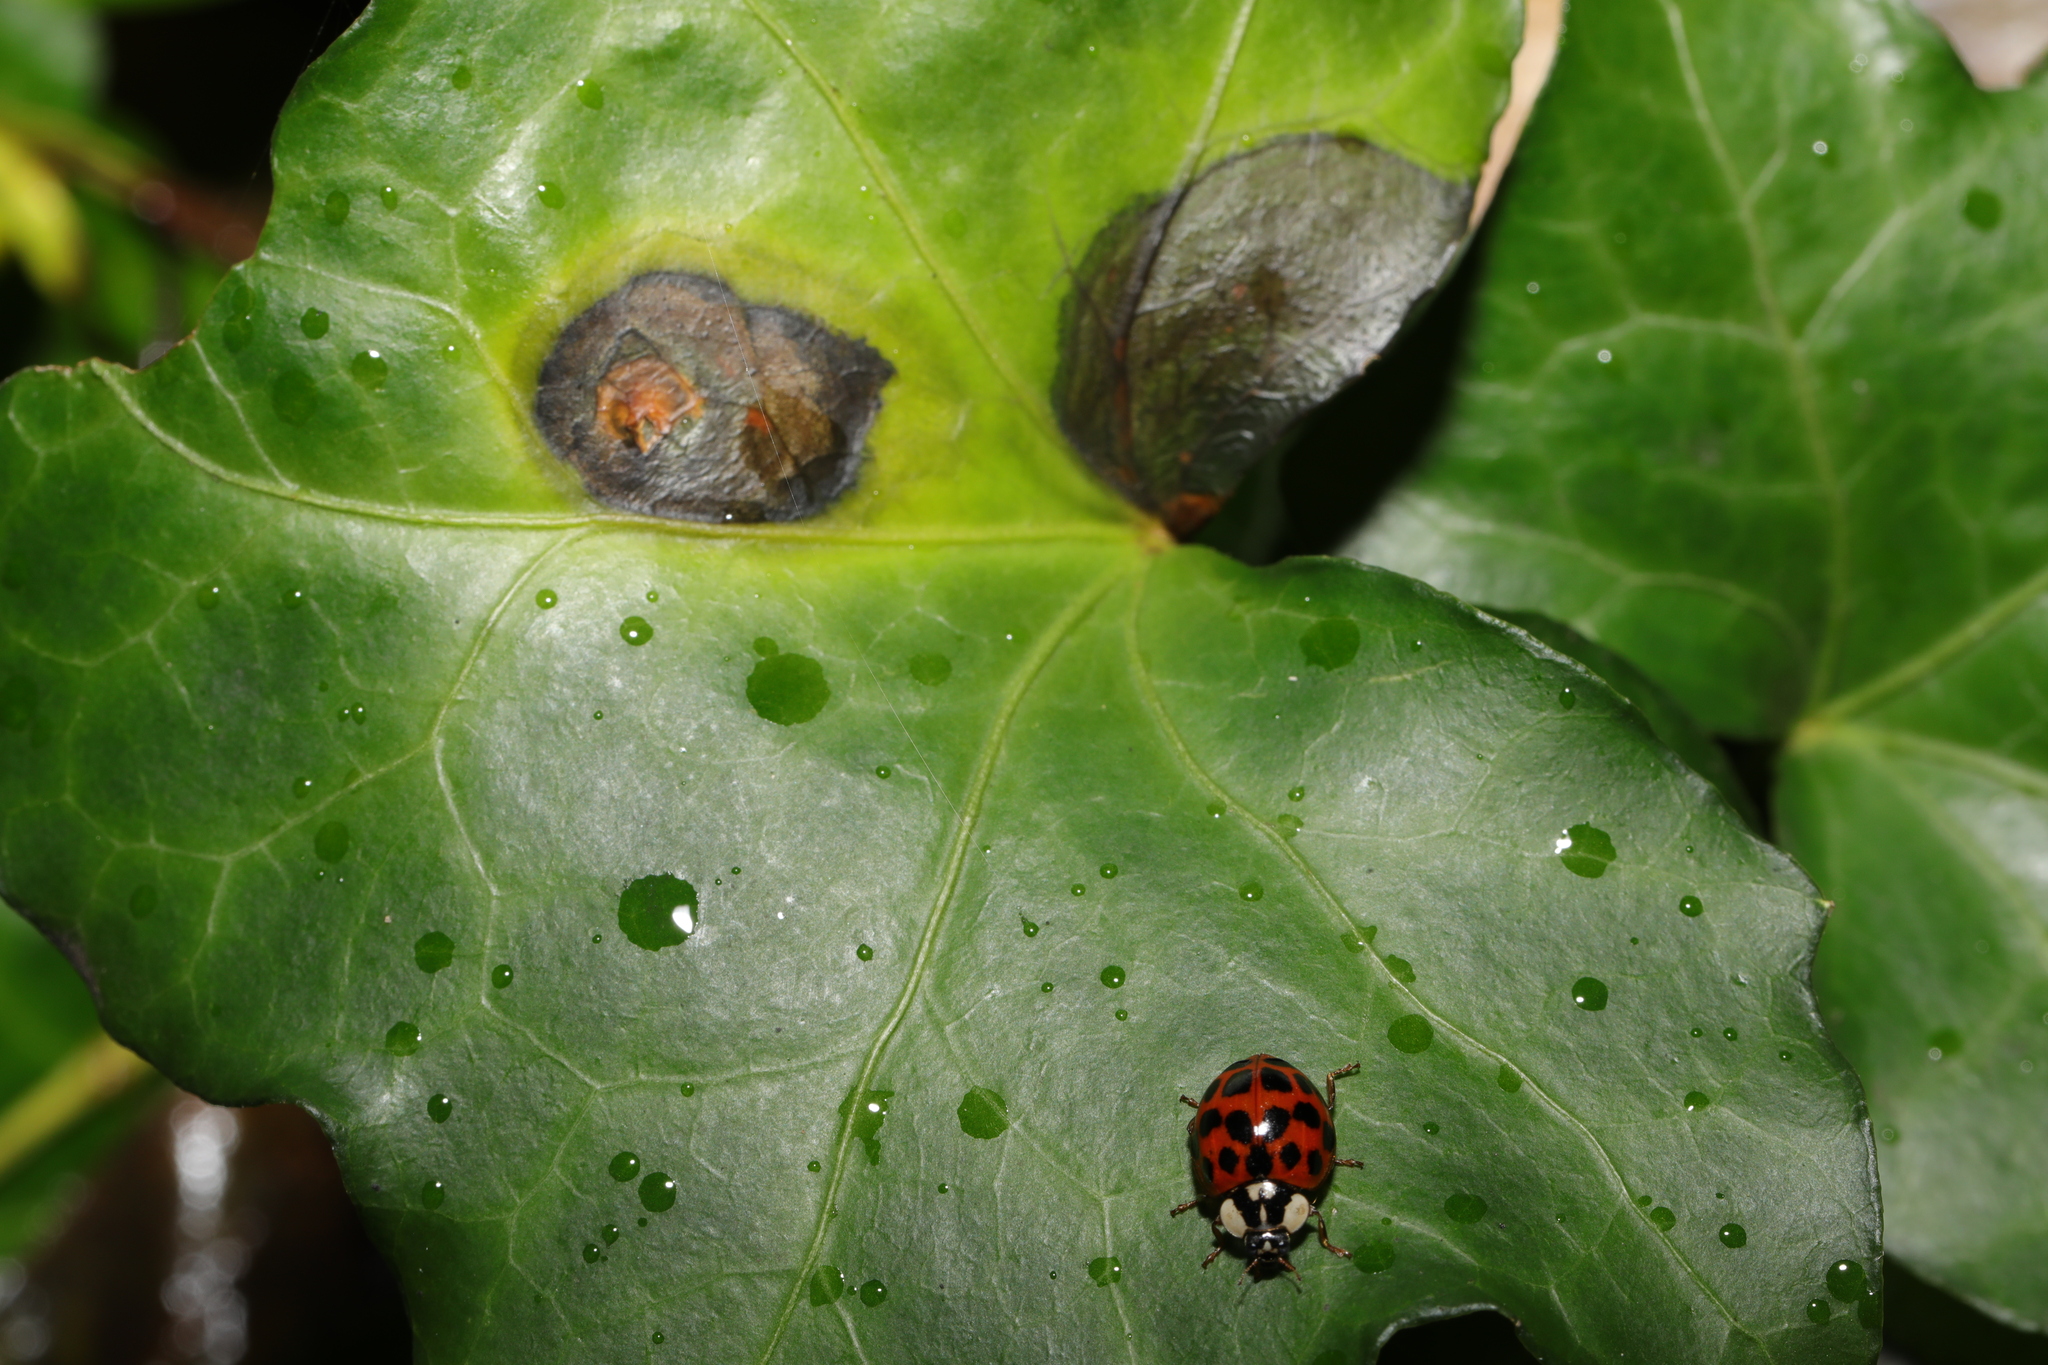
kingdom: Fungi
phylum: Ascomycota
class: Dothideomycetes
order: Pleosporales
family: Didymellaceae
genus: Boeremia
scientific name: Boeremia hedericola
